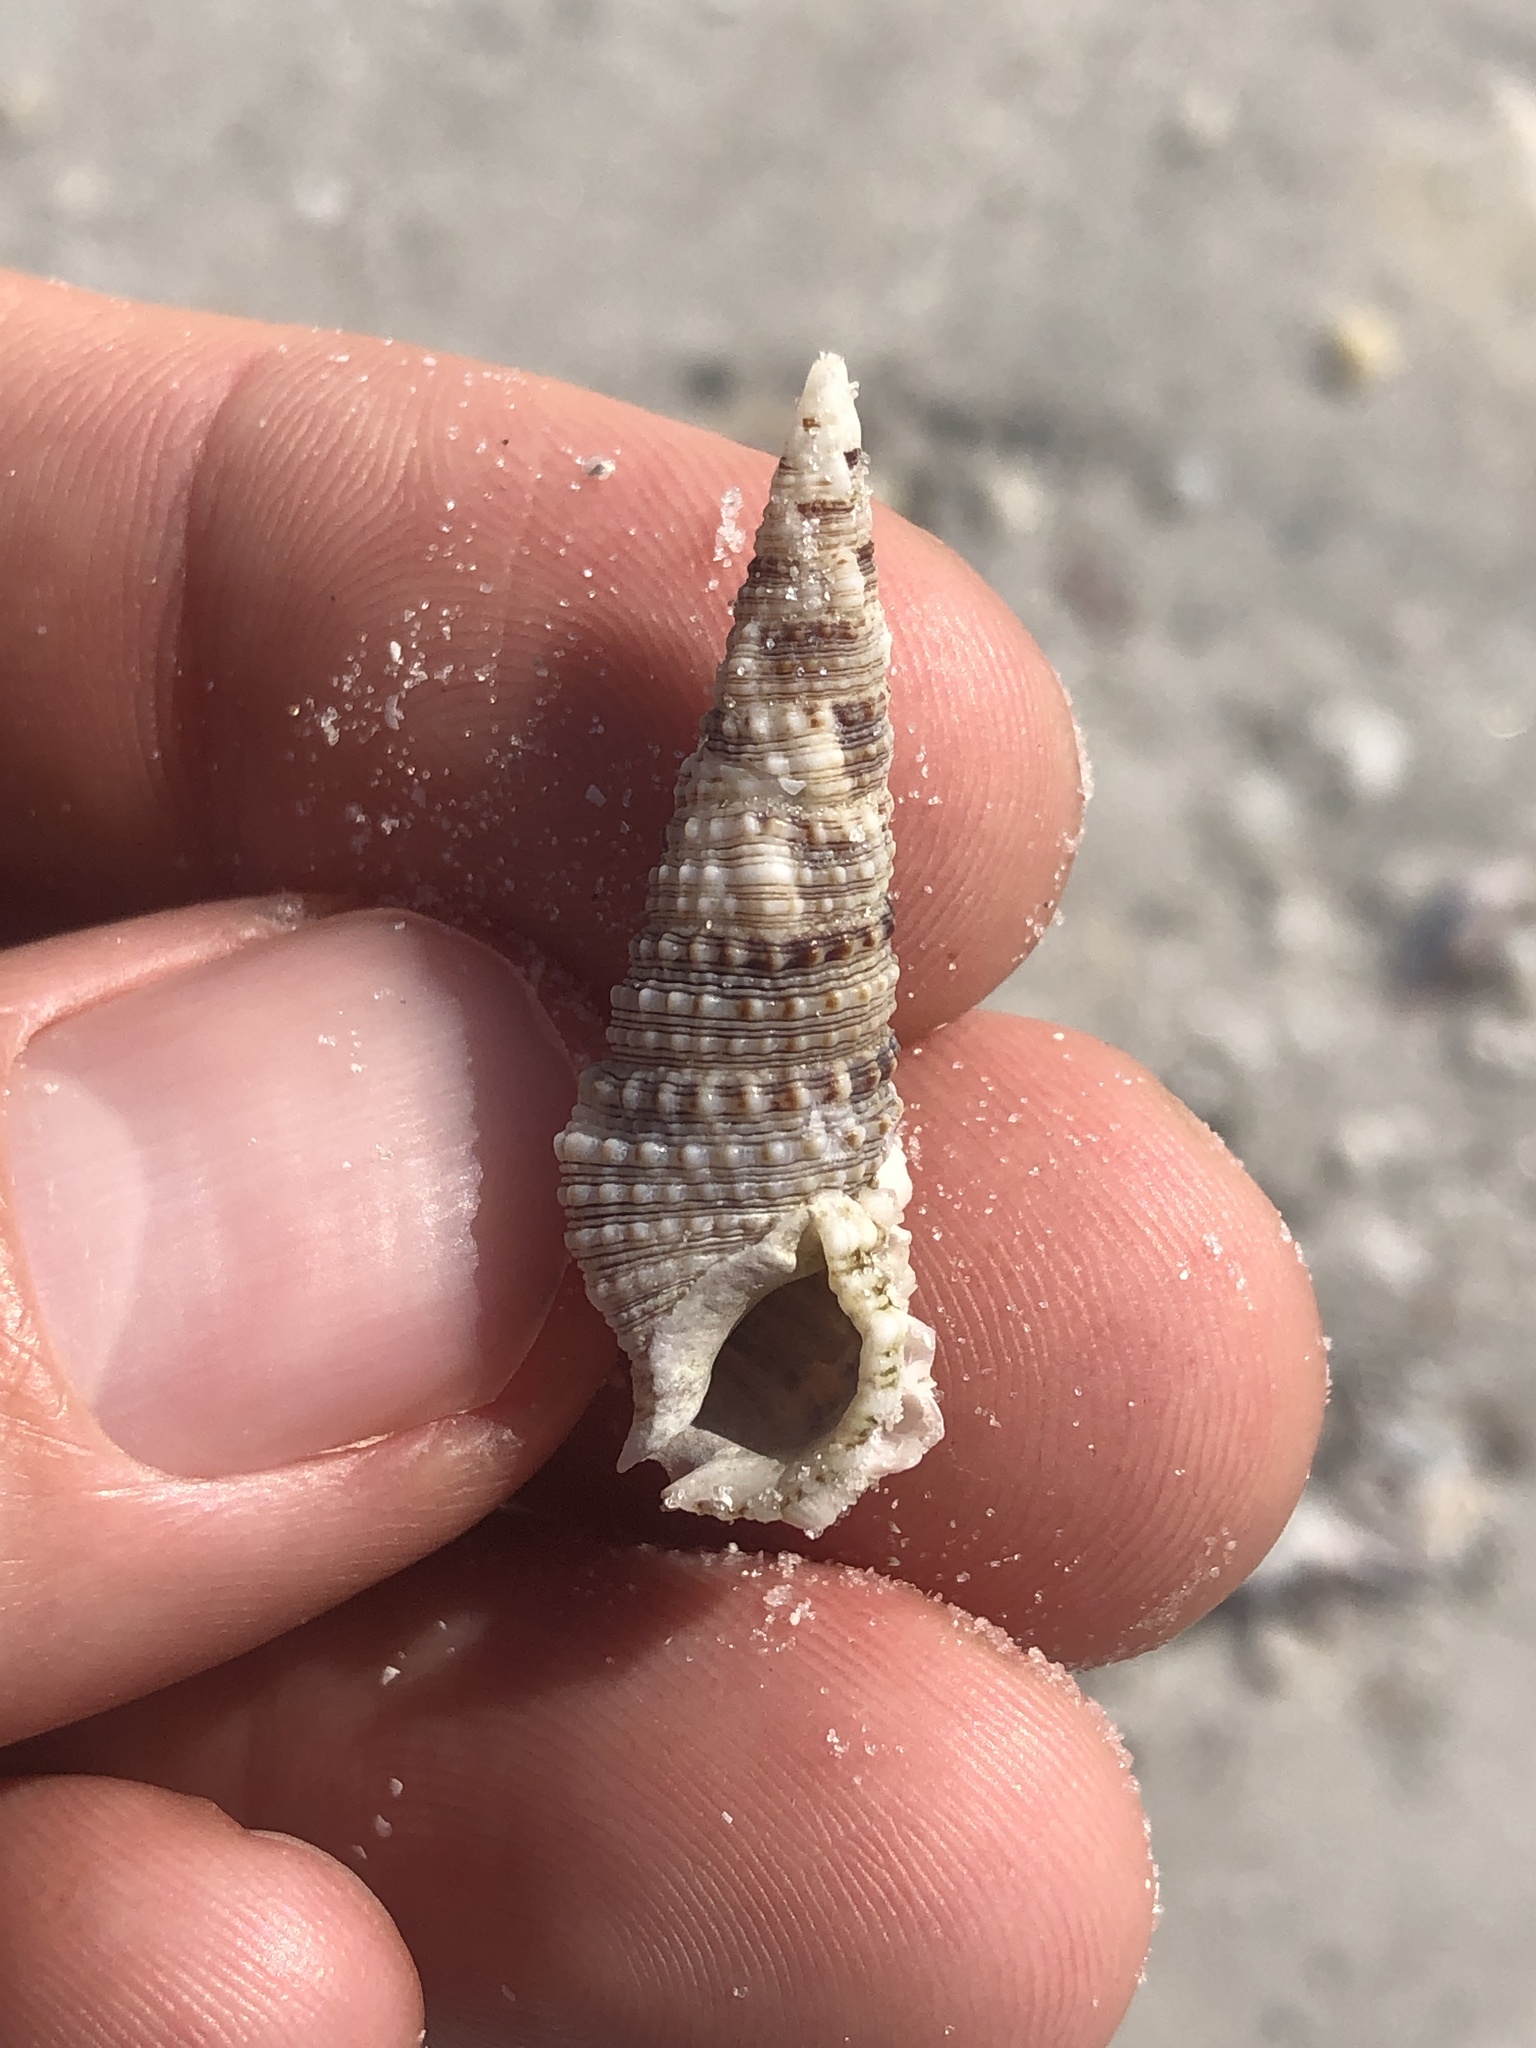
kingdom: Animalia
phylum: Mollusca
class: Gastropoda
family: Cerithiidae
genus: Cerithium
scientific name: Cerithium atratum
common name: Dark cerith
